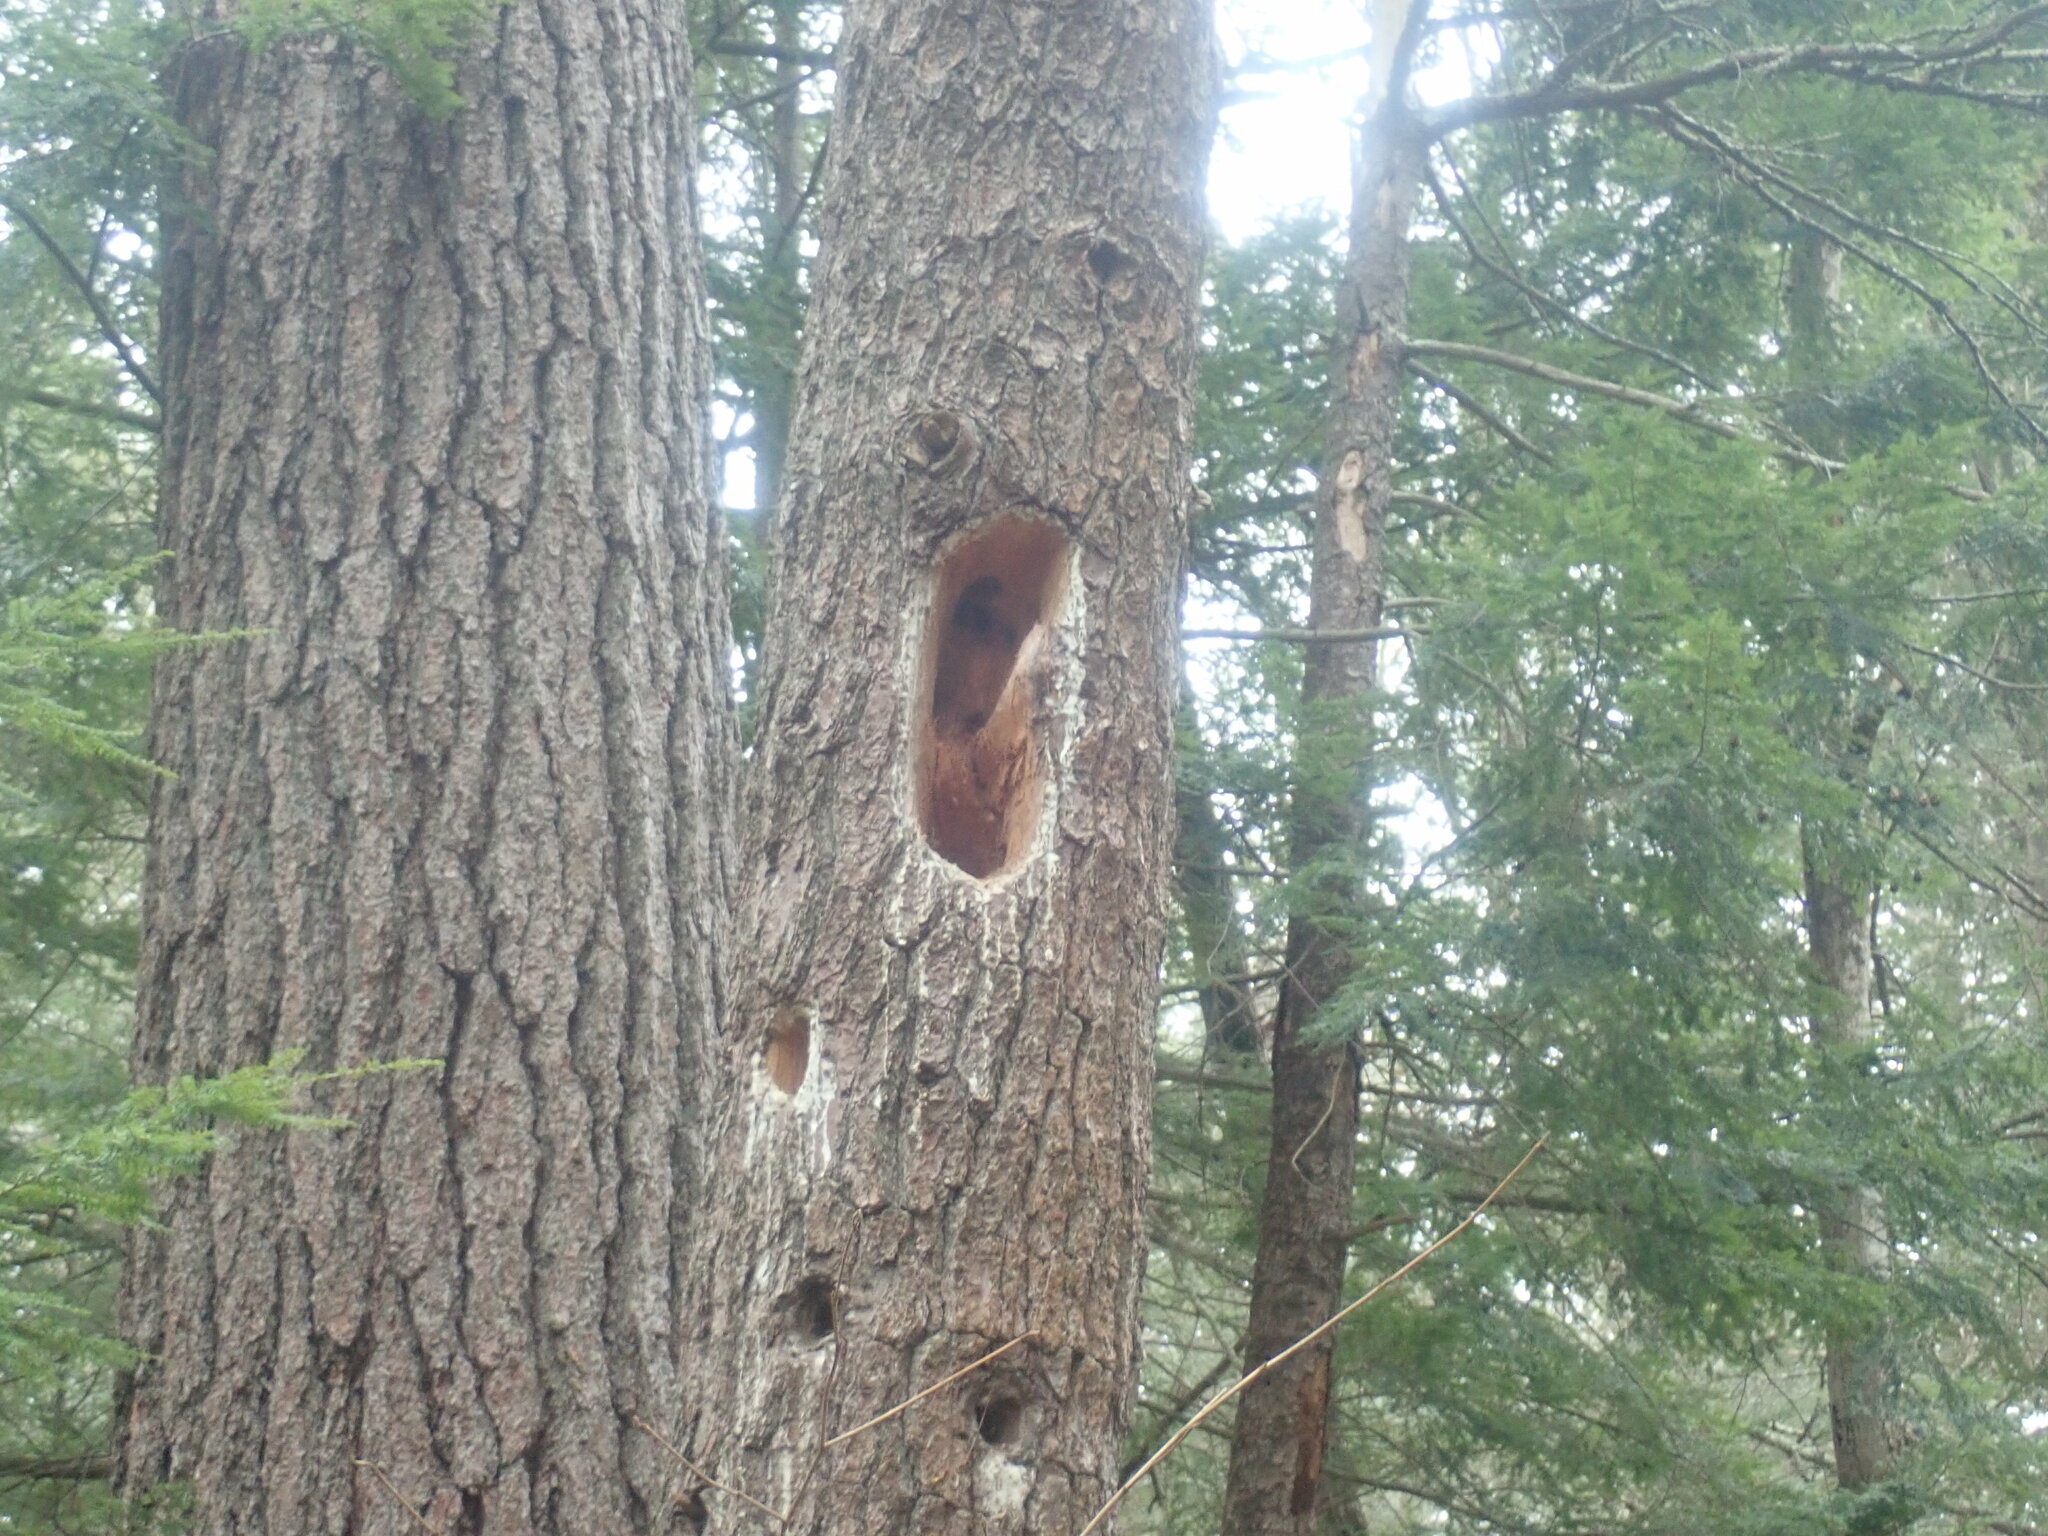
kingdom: Animalia
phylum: Chordata
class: Aves
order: Piciformes
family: Picidae
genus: Dryocopus
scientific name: Dryocopus pileatus
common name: Pileated woodpecker
